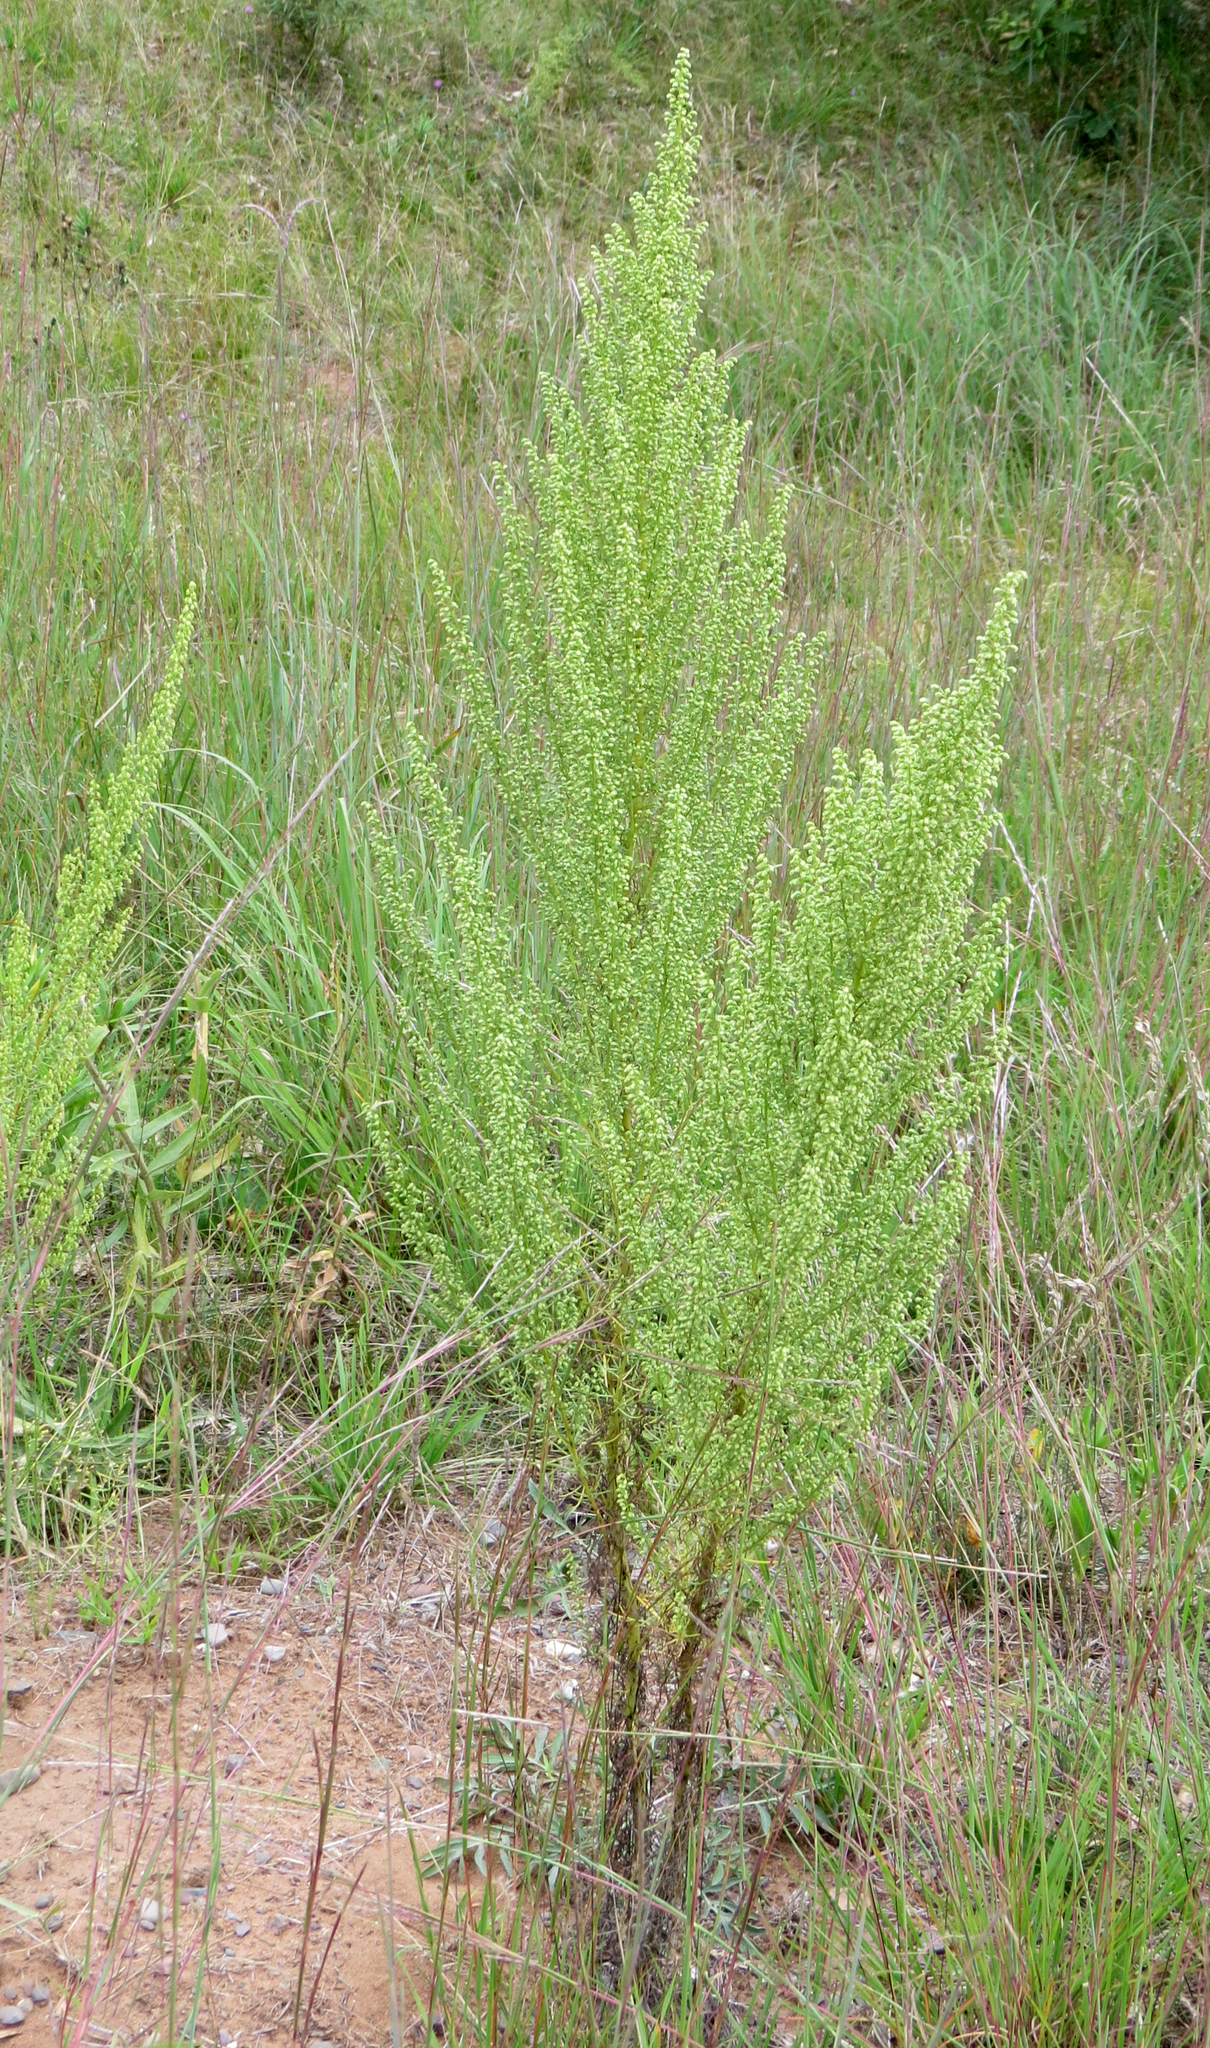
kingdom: Plantae
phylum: Tracheophyta
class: Magnoliopsida
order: Asterales
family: Asteraceae
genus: Artemisia
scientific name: Artemisia campestris
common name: Field wormwood
